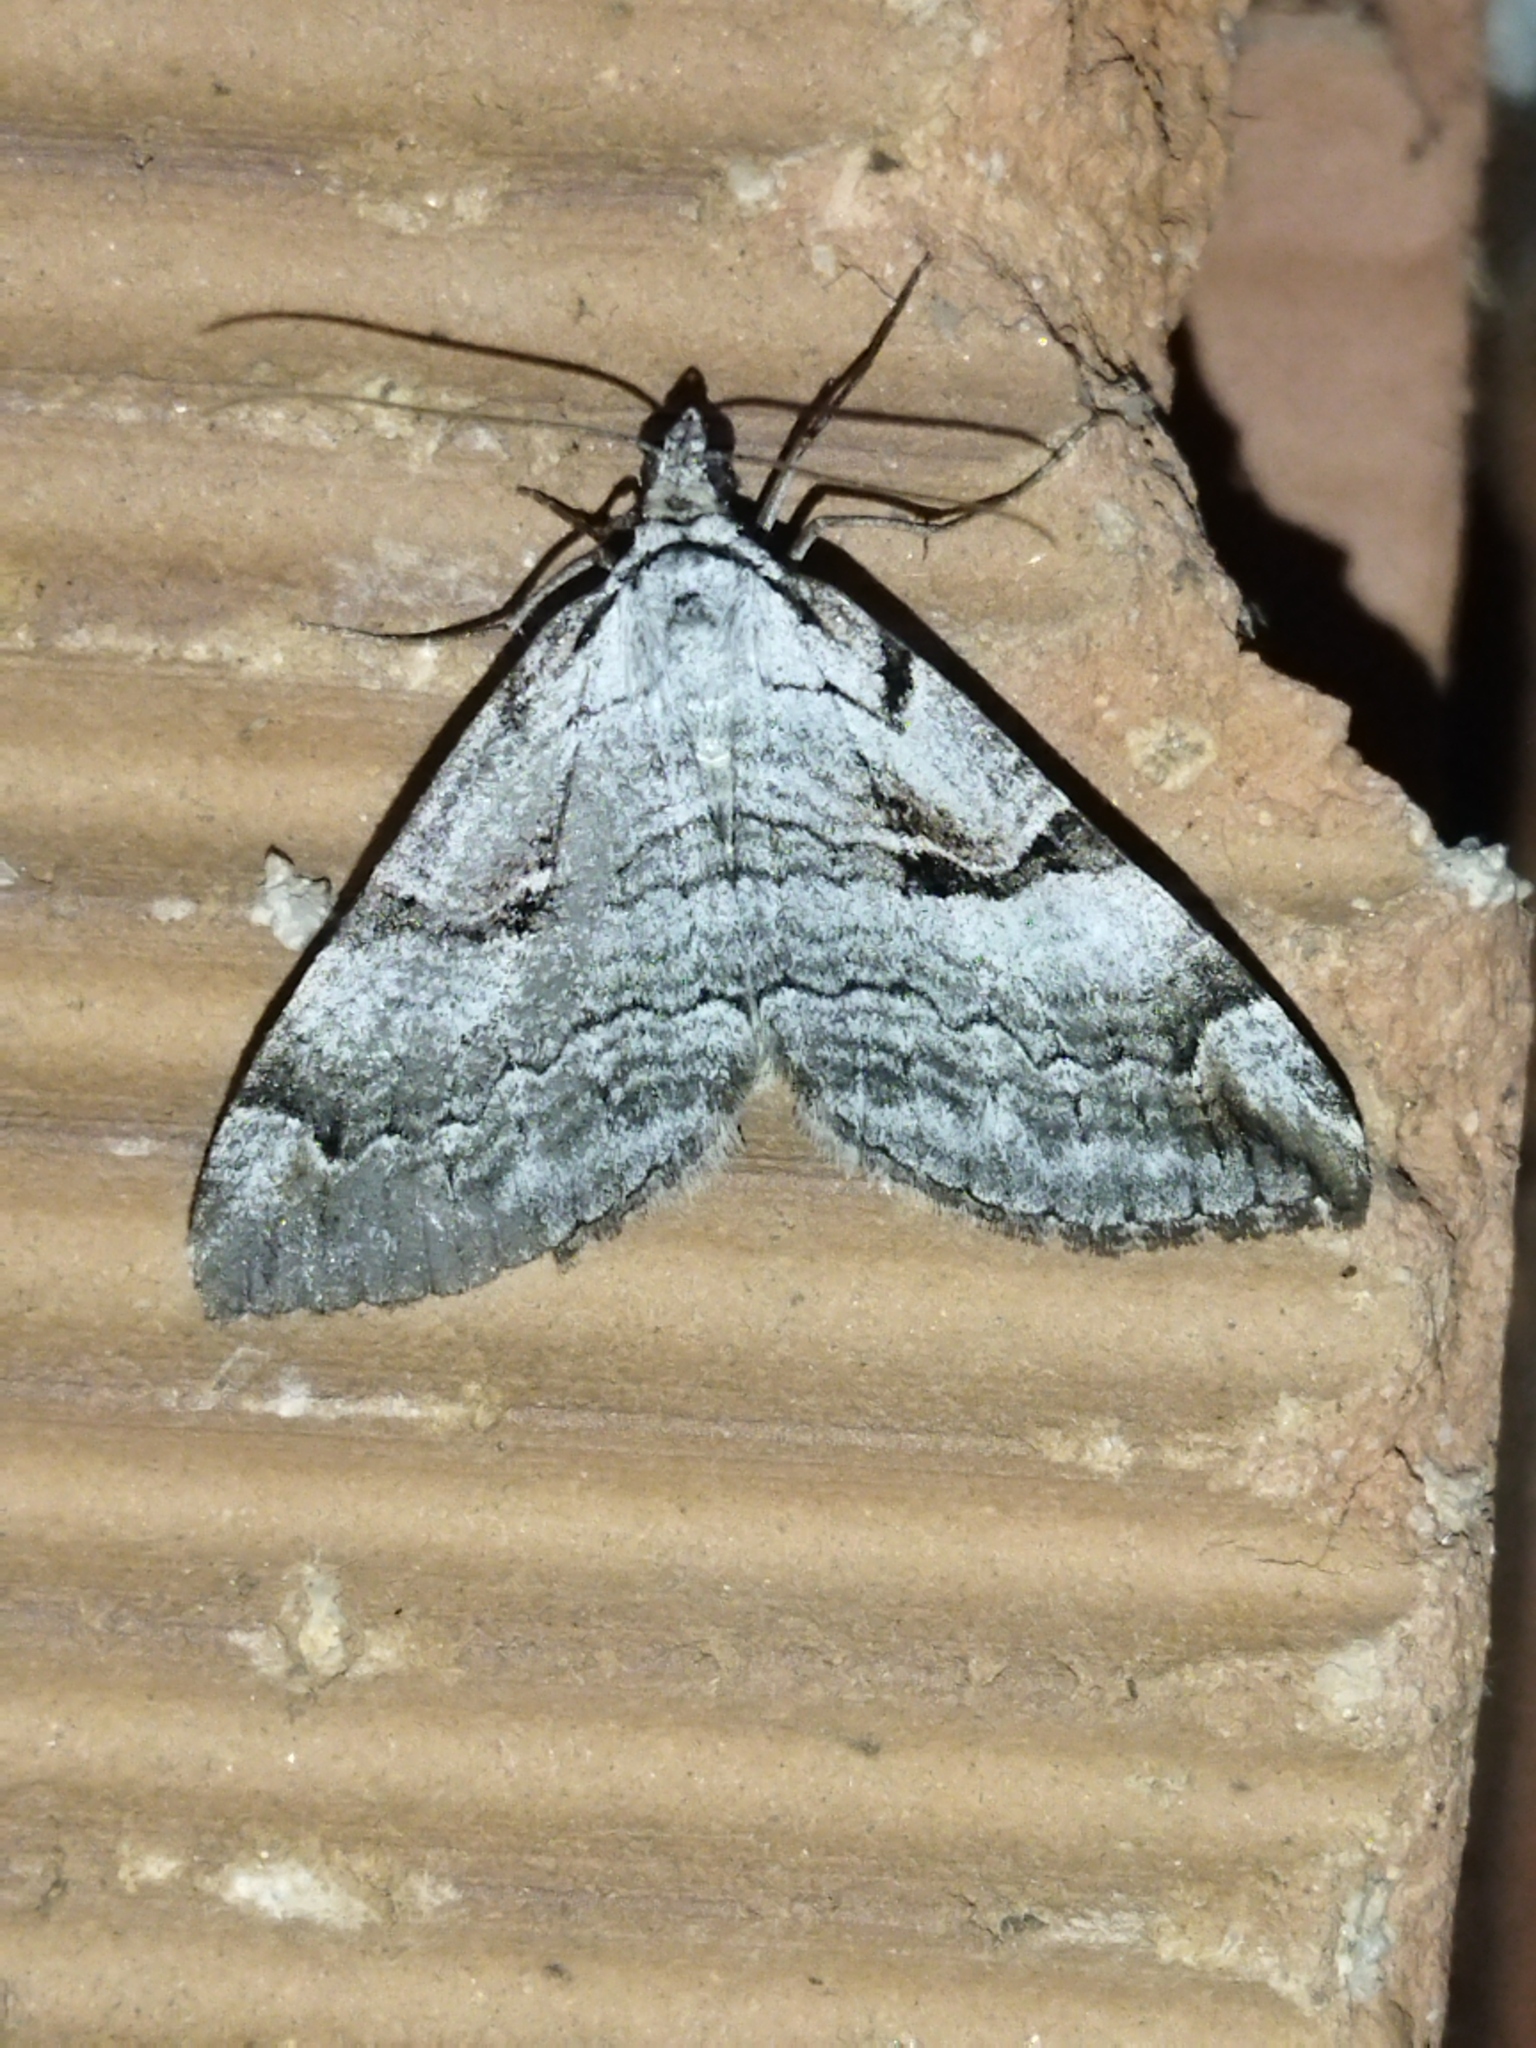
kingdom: Animalia
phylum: Arthropoda
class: Insecta
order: Lepidoptera
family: Geometridae
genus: Aplocera
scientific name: Aplocera praeformata
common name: Purple treble-bar
